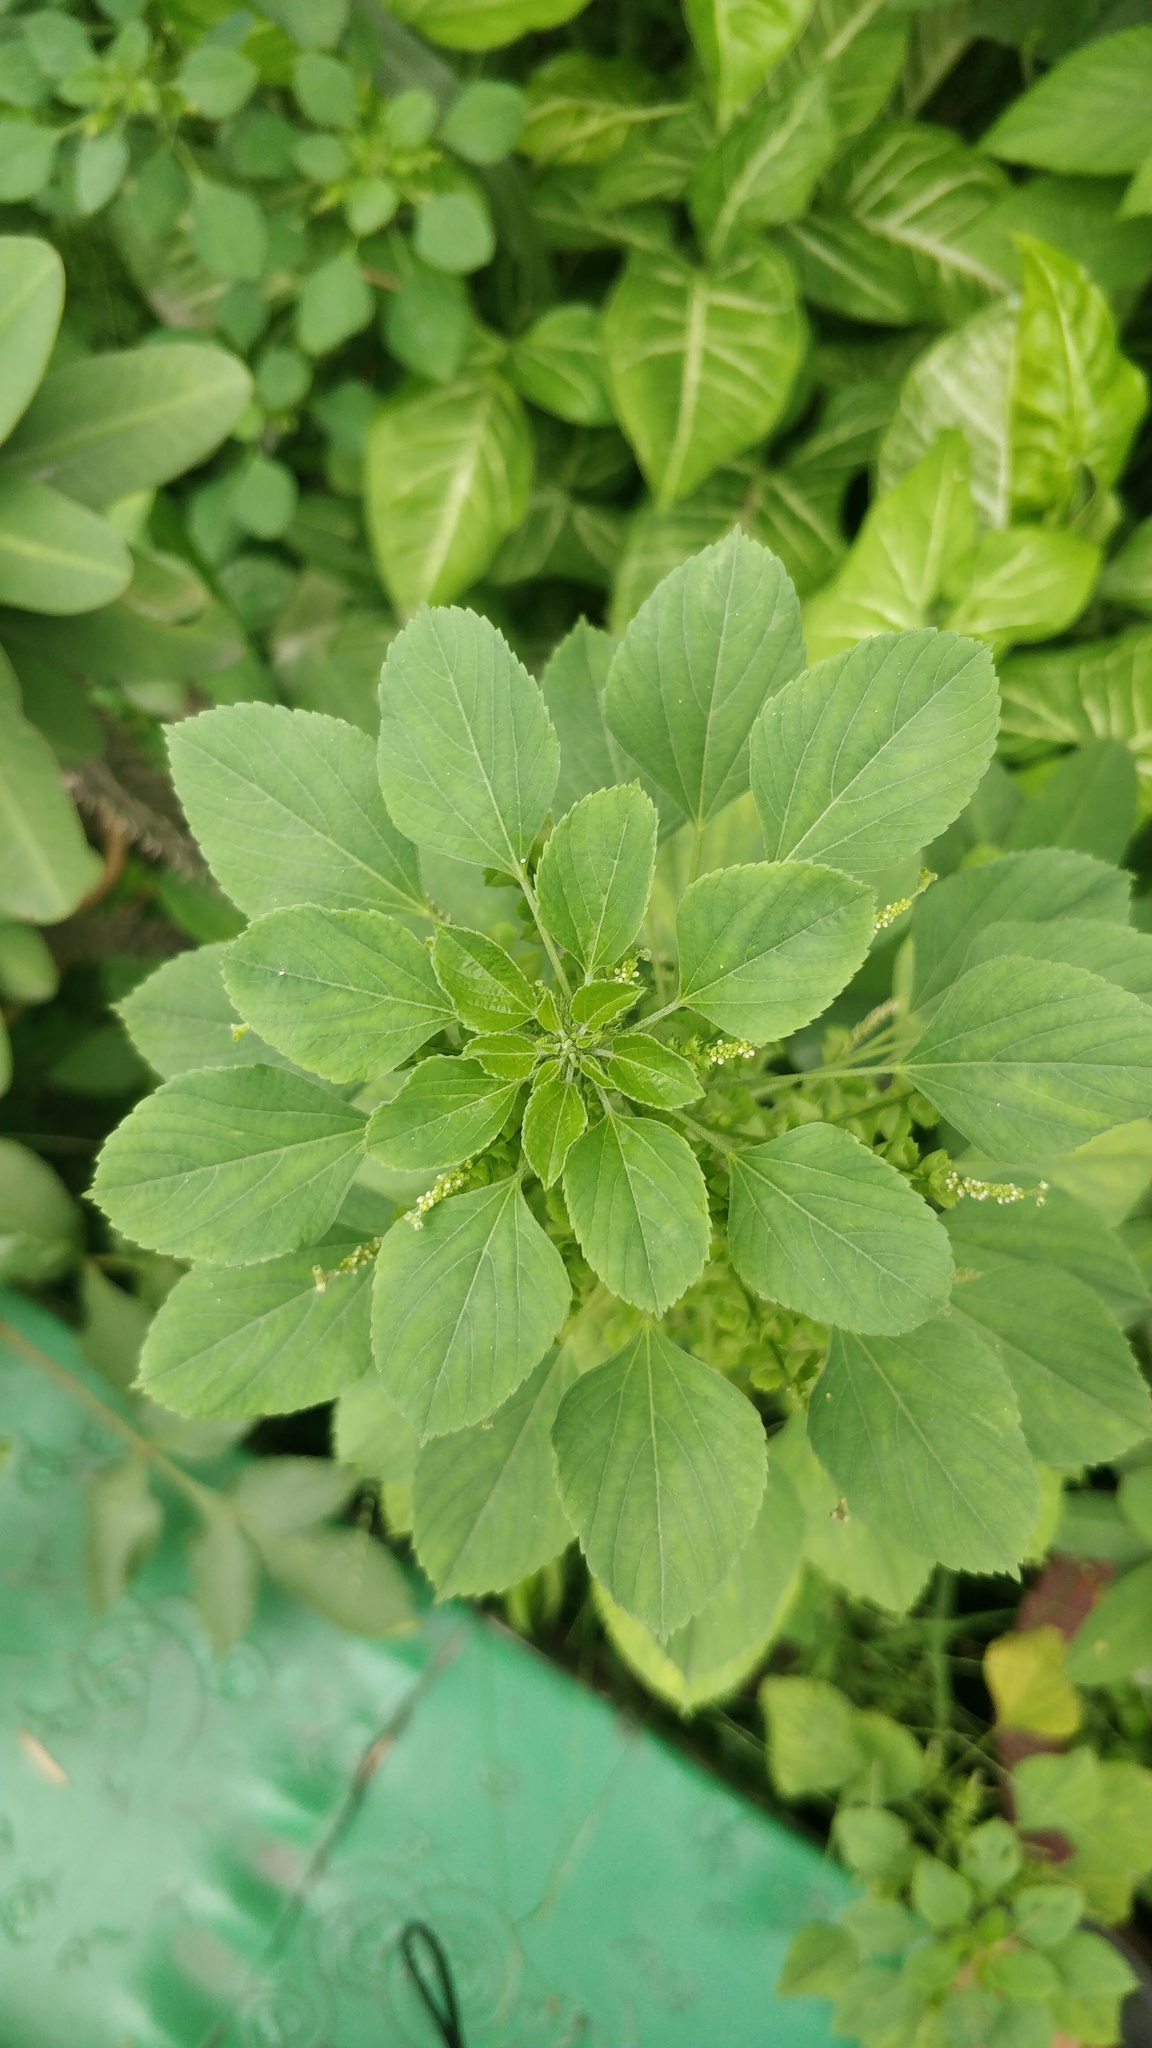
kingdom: Plantae
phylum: Tracheophyta
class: Magnoliopsida
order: Malpighiales
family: Euphorbiaceae
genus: Acalypha
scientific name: Acalypha indica
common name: Indian acalypha
